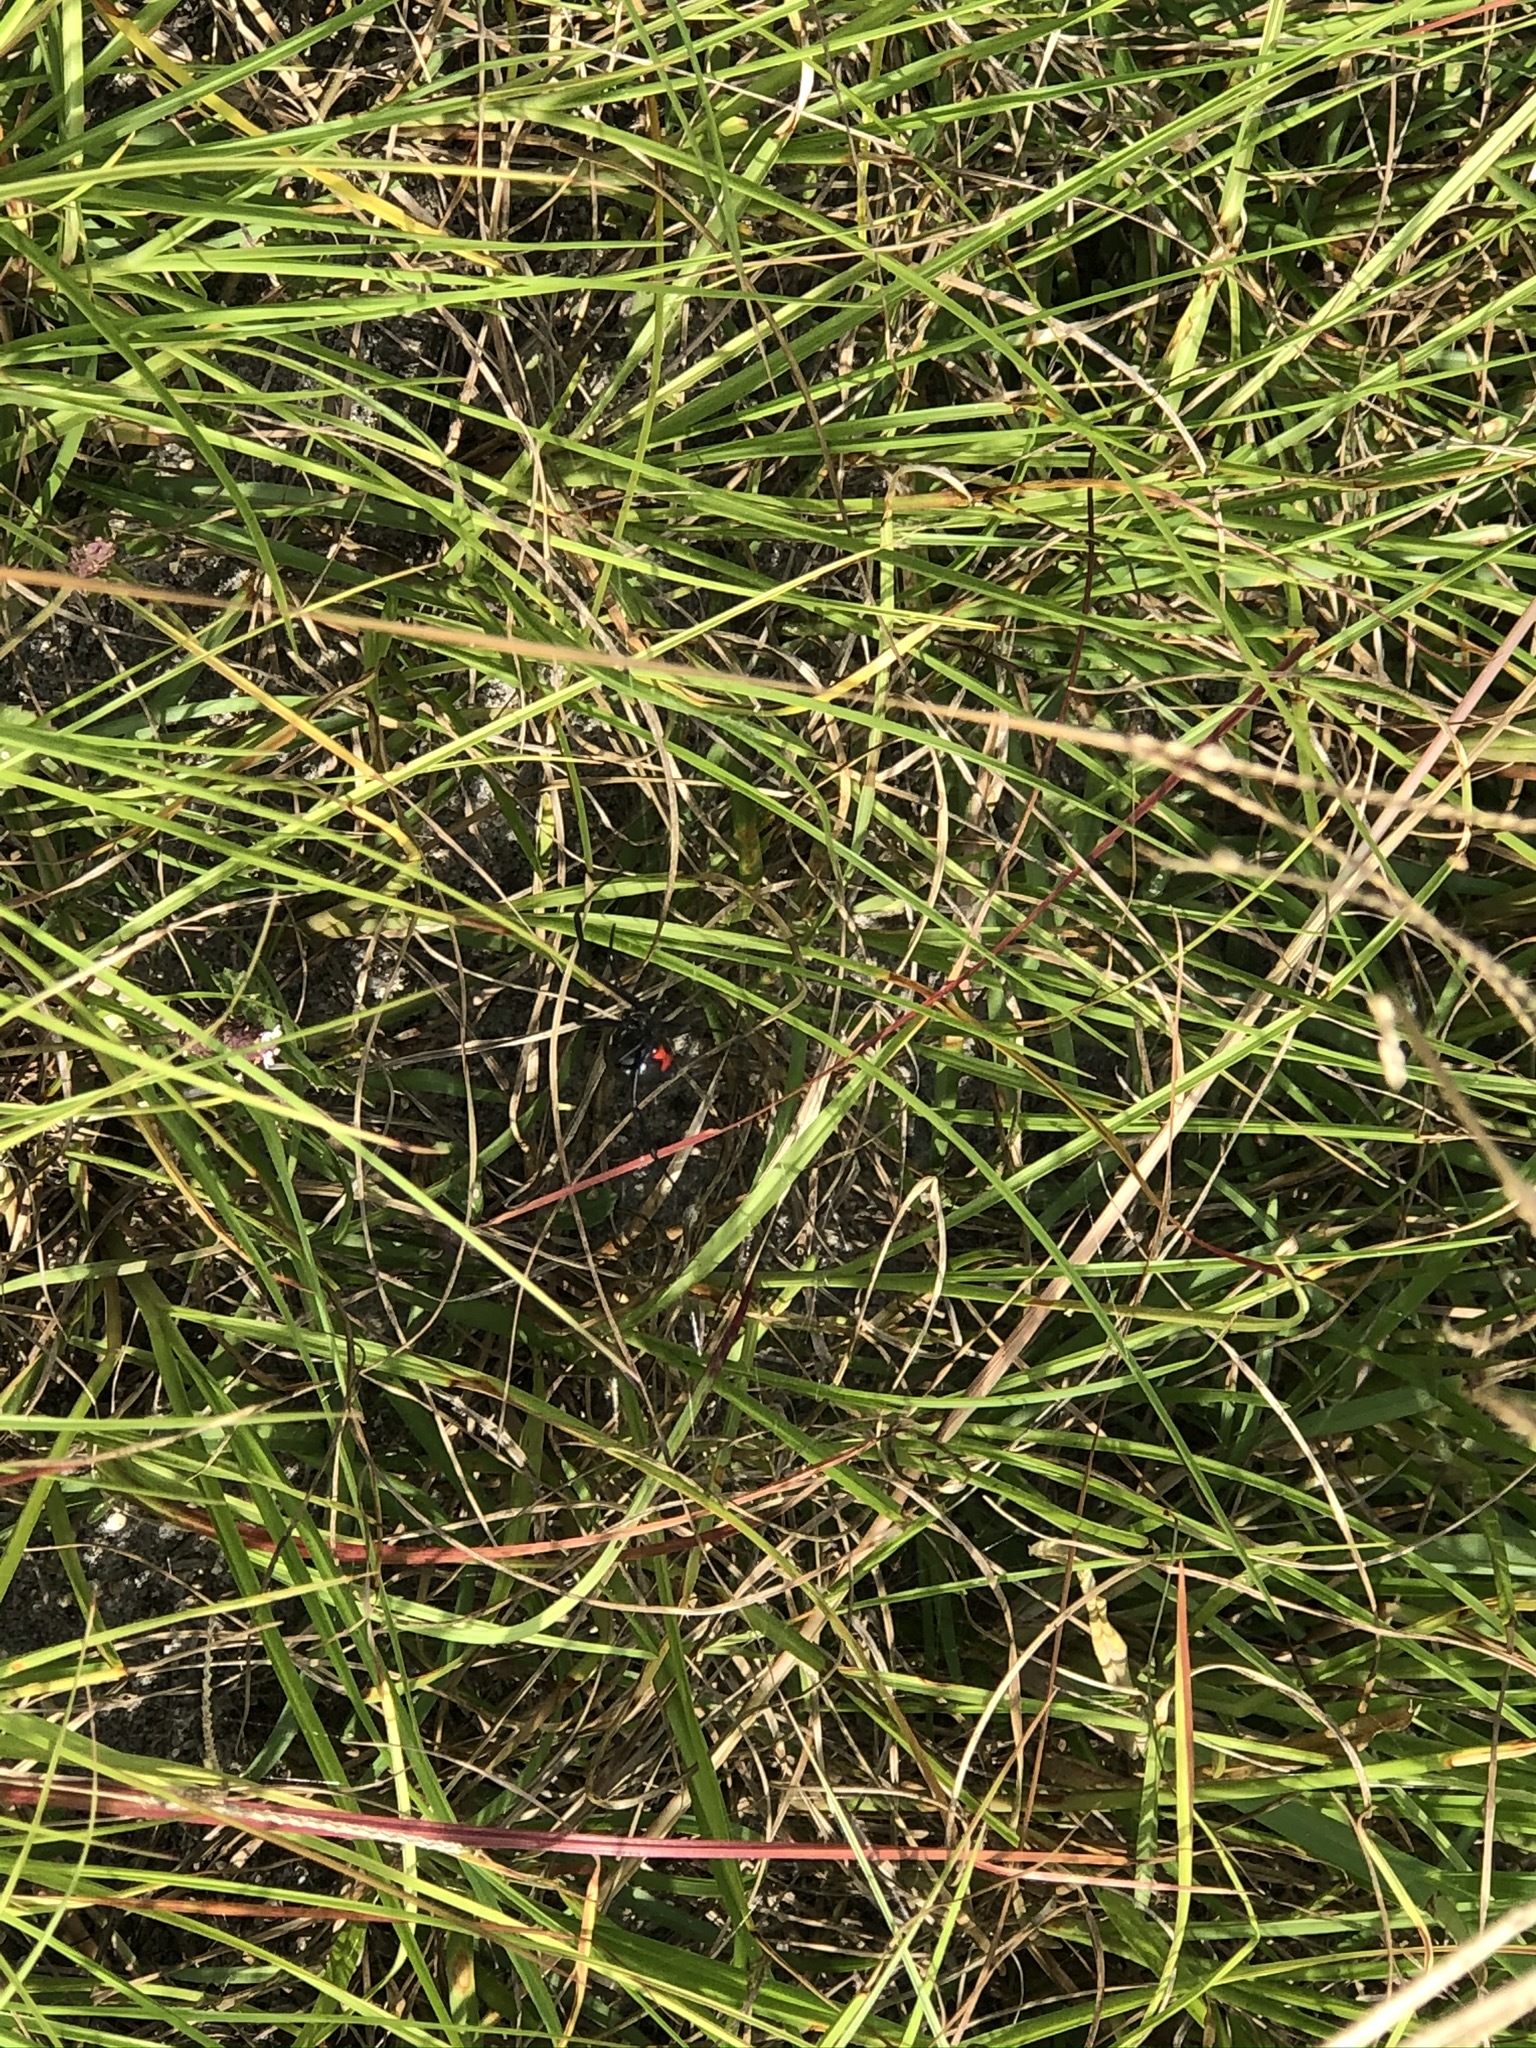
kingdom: Animalia
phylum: Arthropoda
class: Arachnida
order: Araneae
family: Theridiidae
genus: Latrodectus
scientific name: Latrodectus mactans
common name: Cobweb spiders
